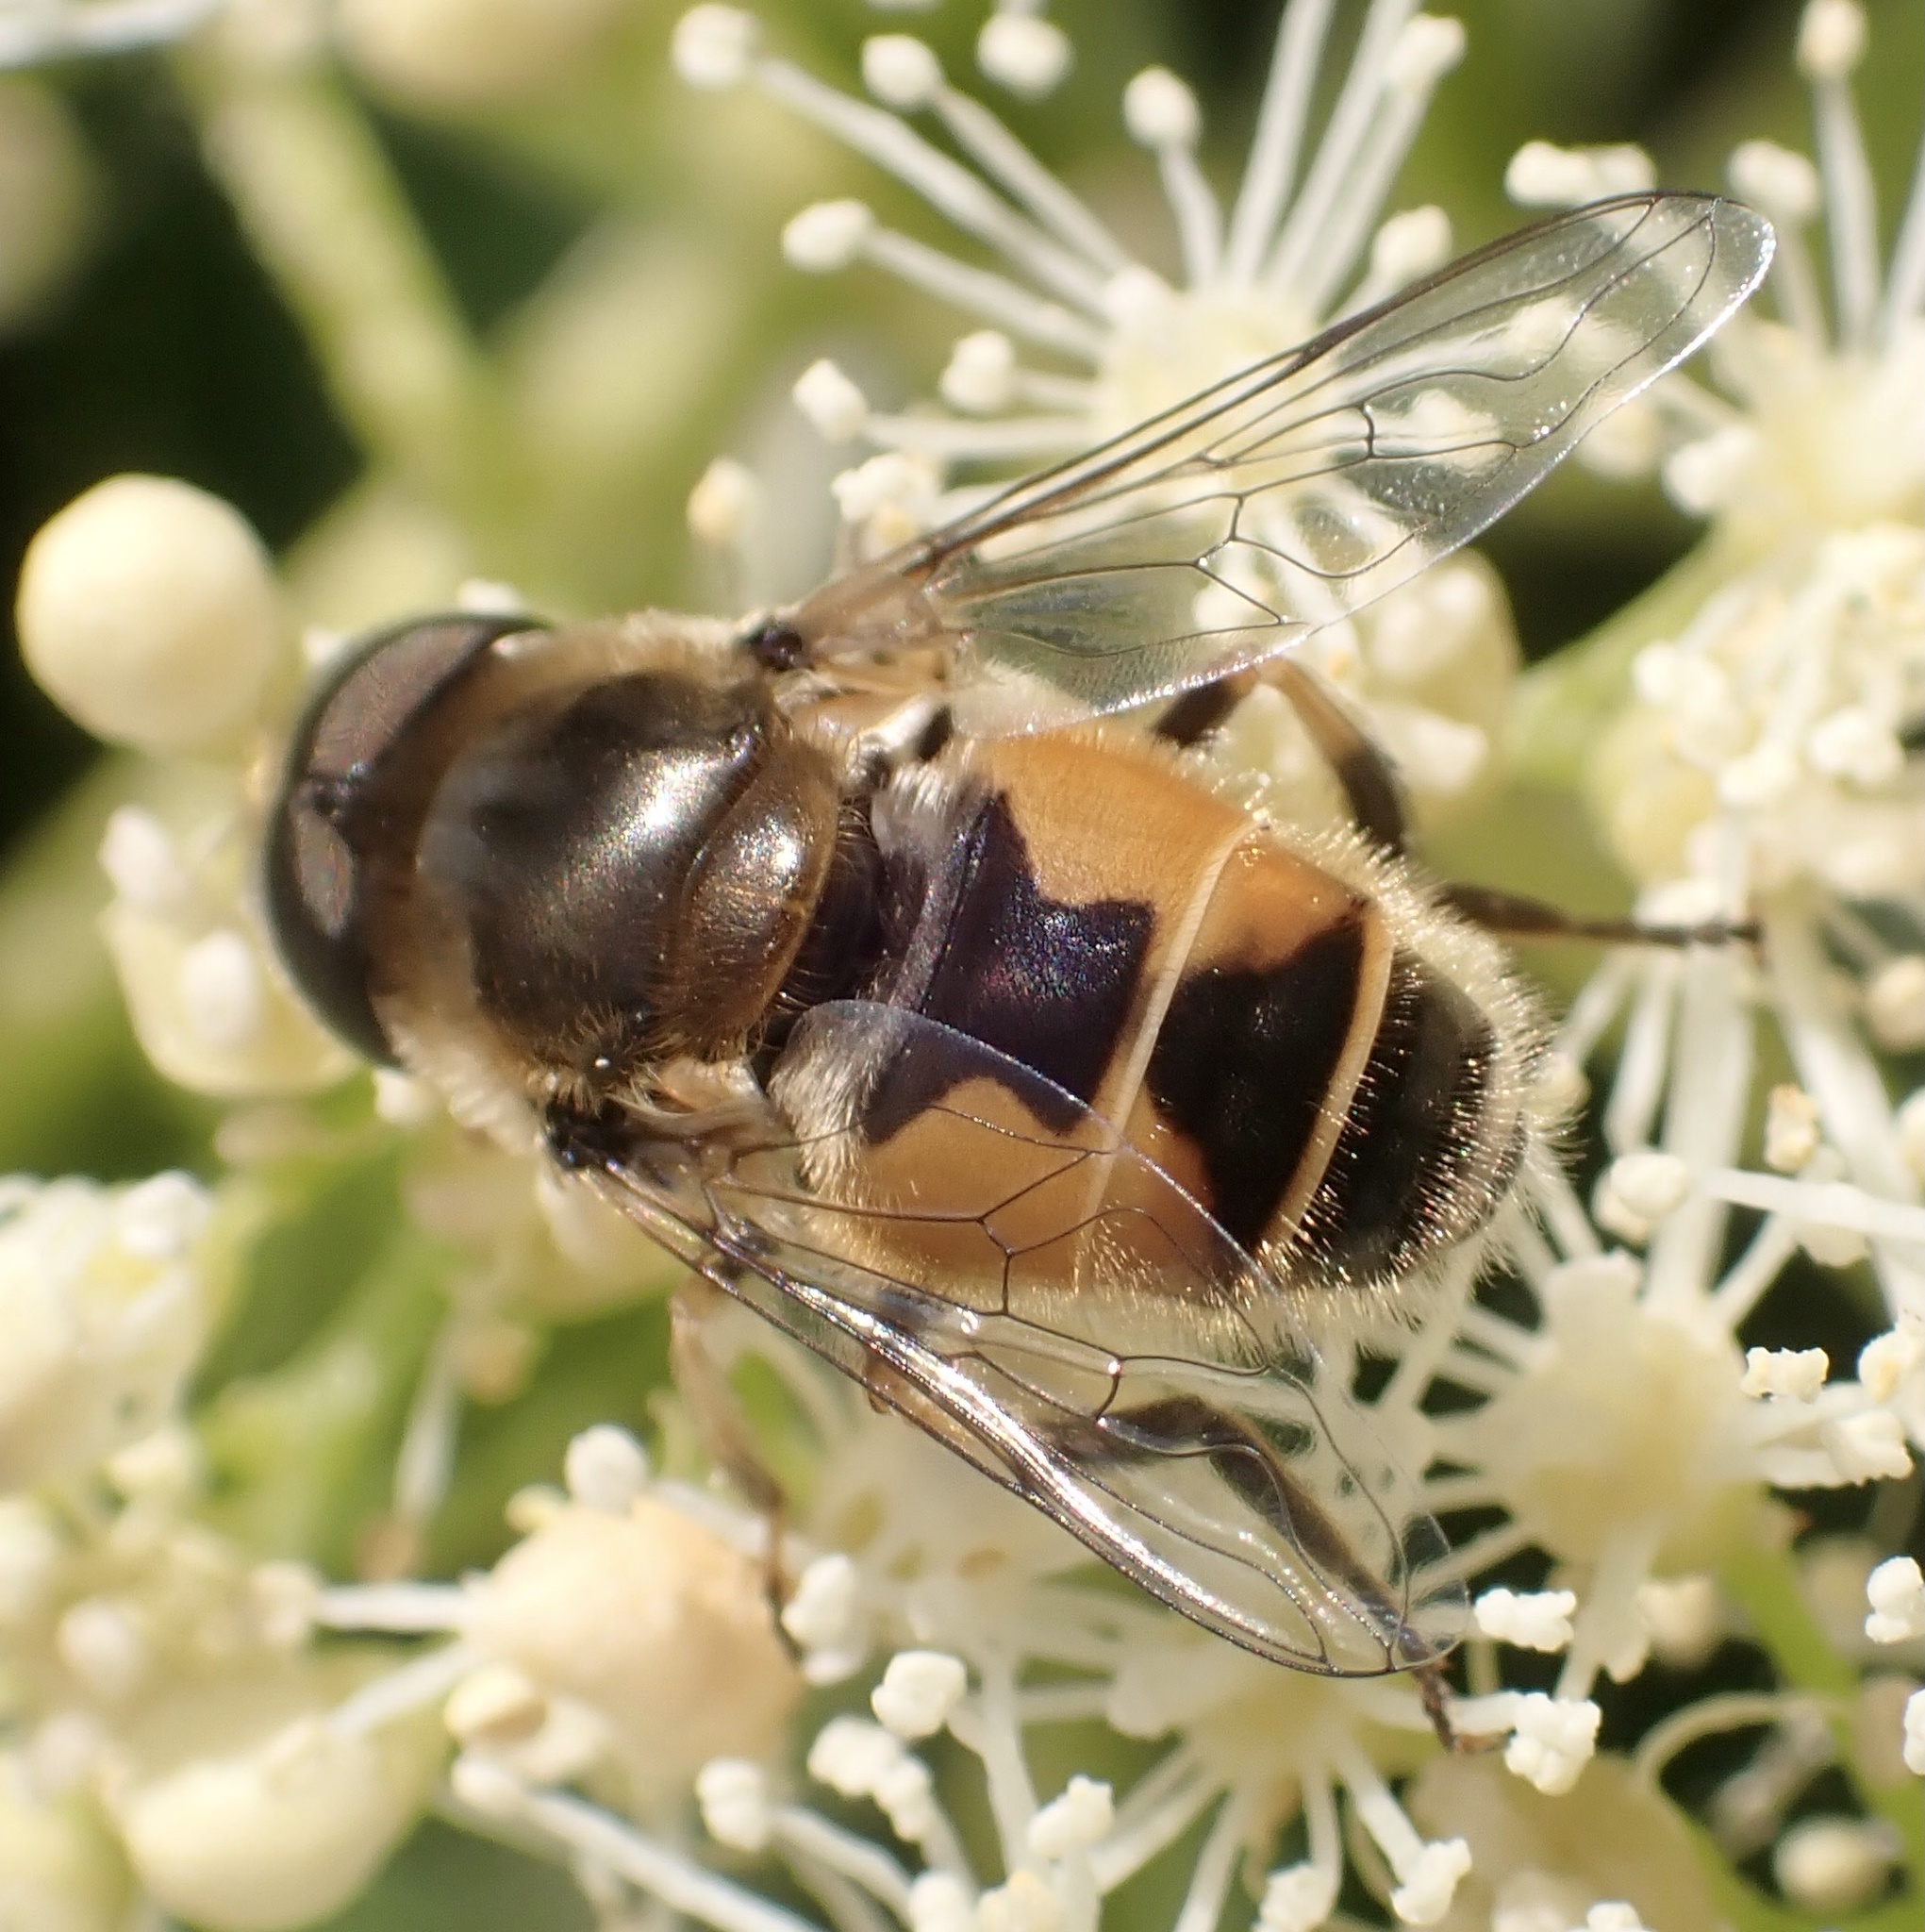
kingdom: Animalia
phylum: Arthropoda
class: Insecta
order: Diptera
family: Syrphidae
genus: Eristalis
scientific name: Eristalis arbustorum
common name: Hover fly
